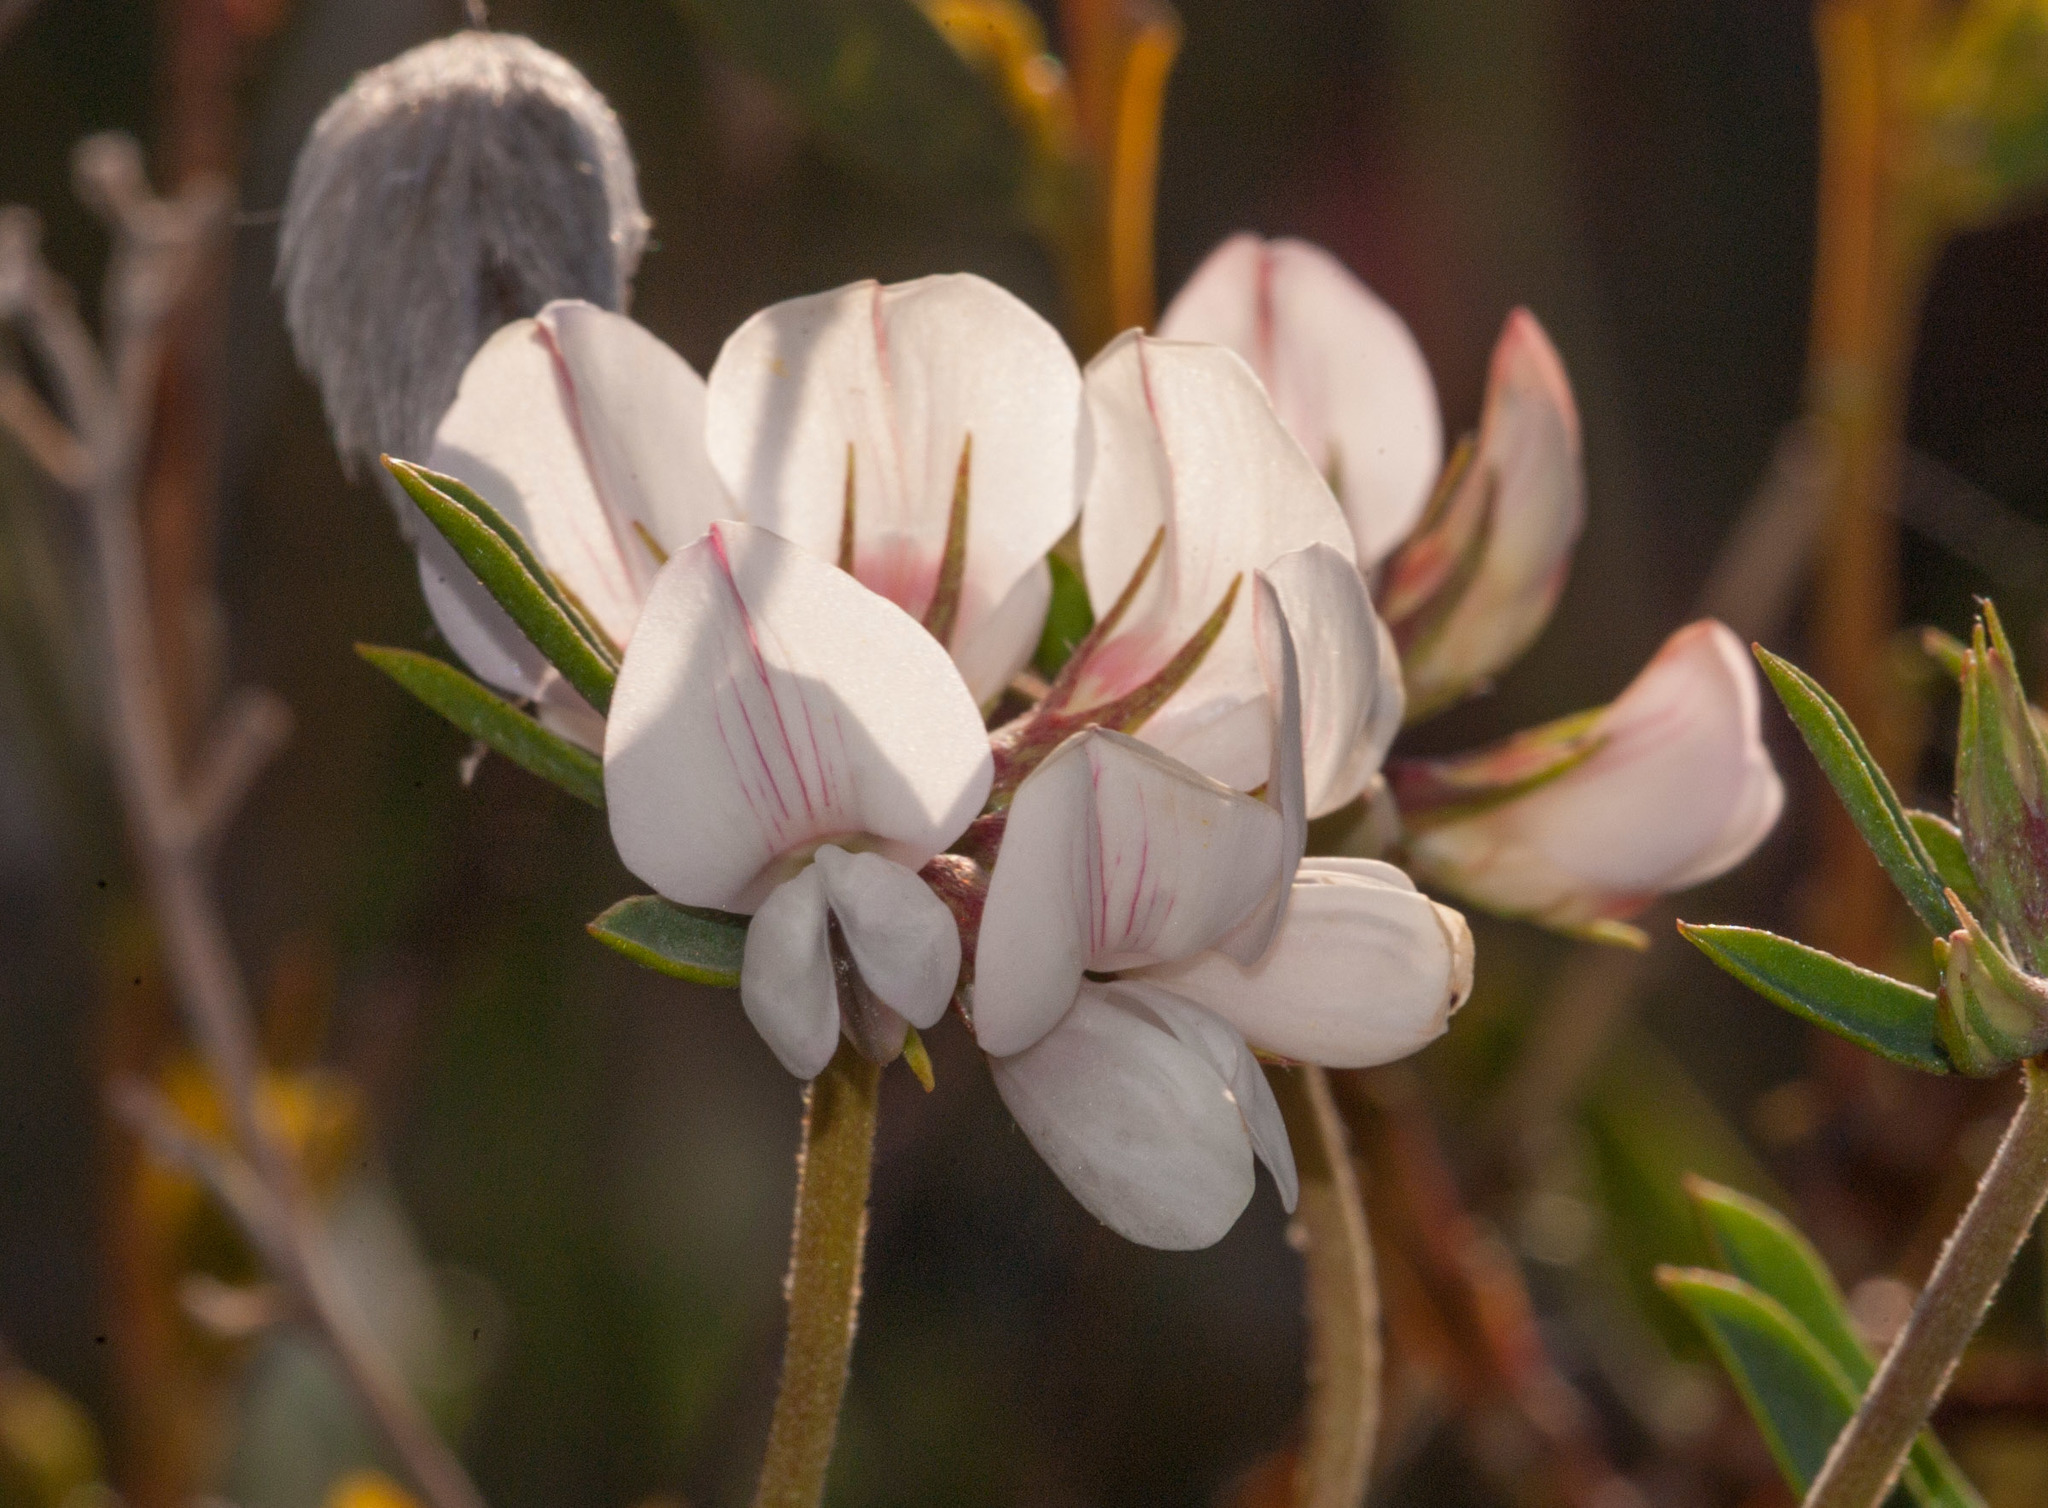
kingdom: Plantae
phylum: Tracheophyta
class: Magnoliopsida
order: Fabales
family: Fabaceae
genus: Lotus
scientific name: Lotus australis
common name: Australian trefoil
